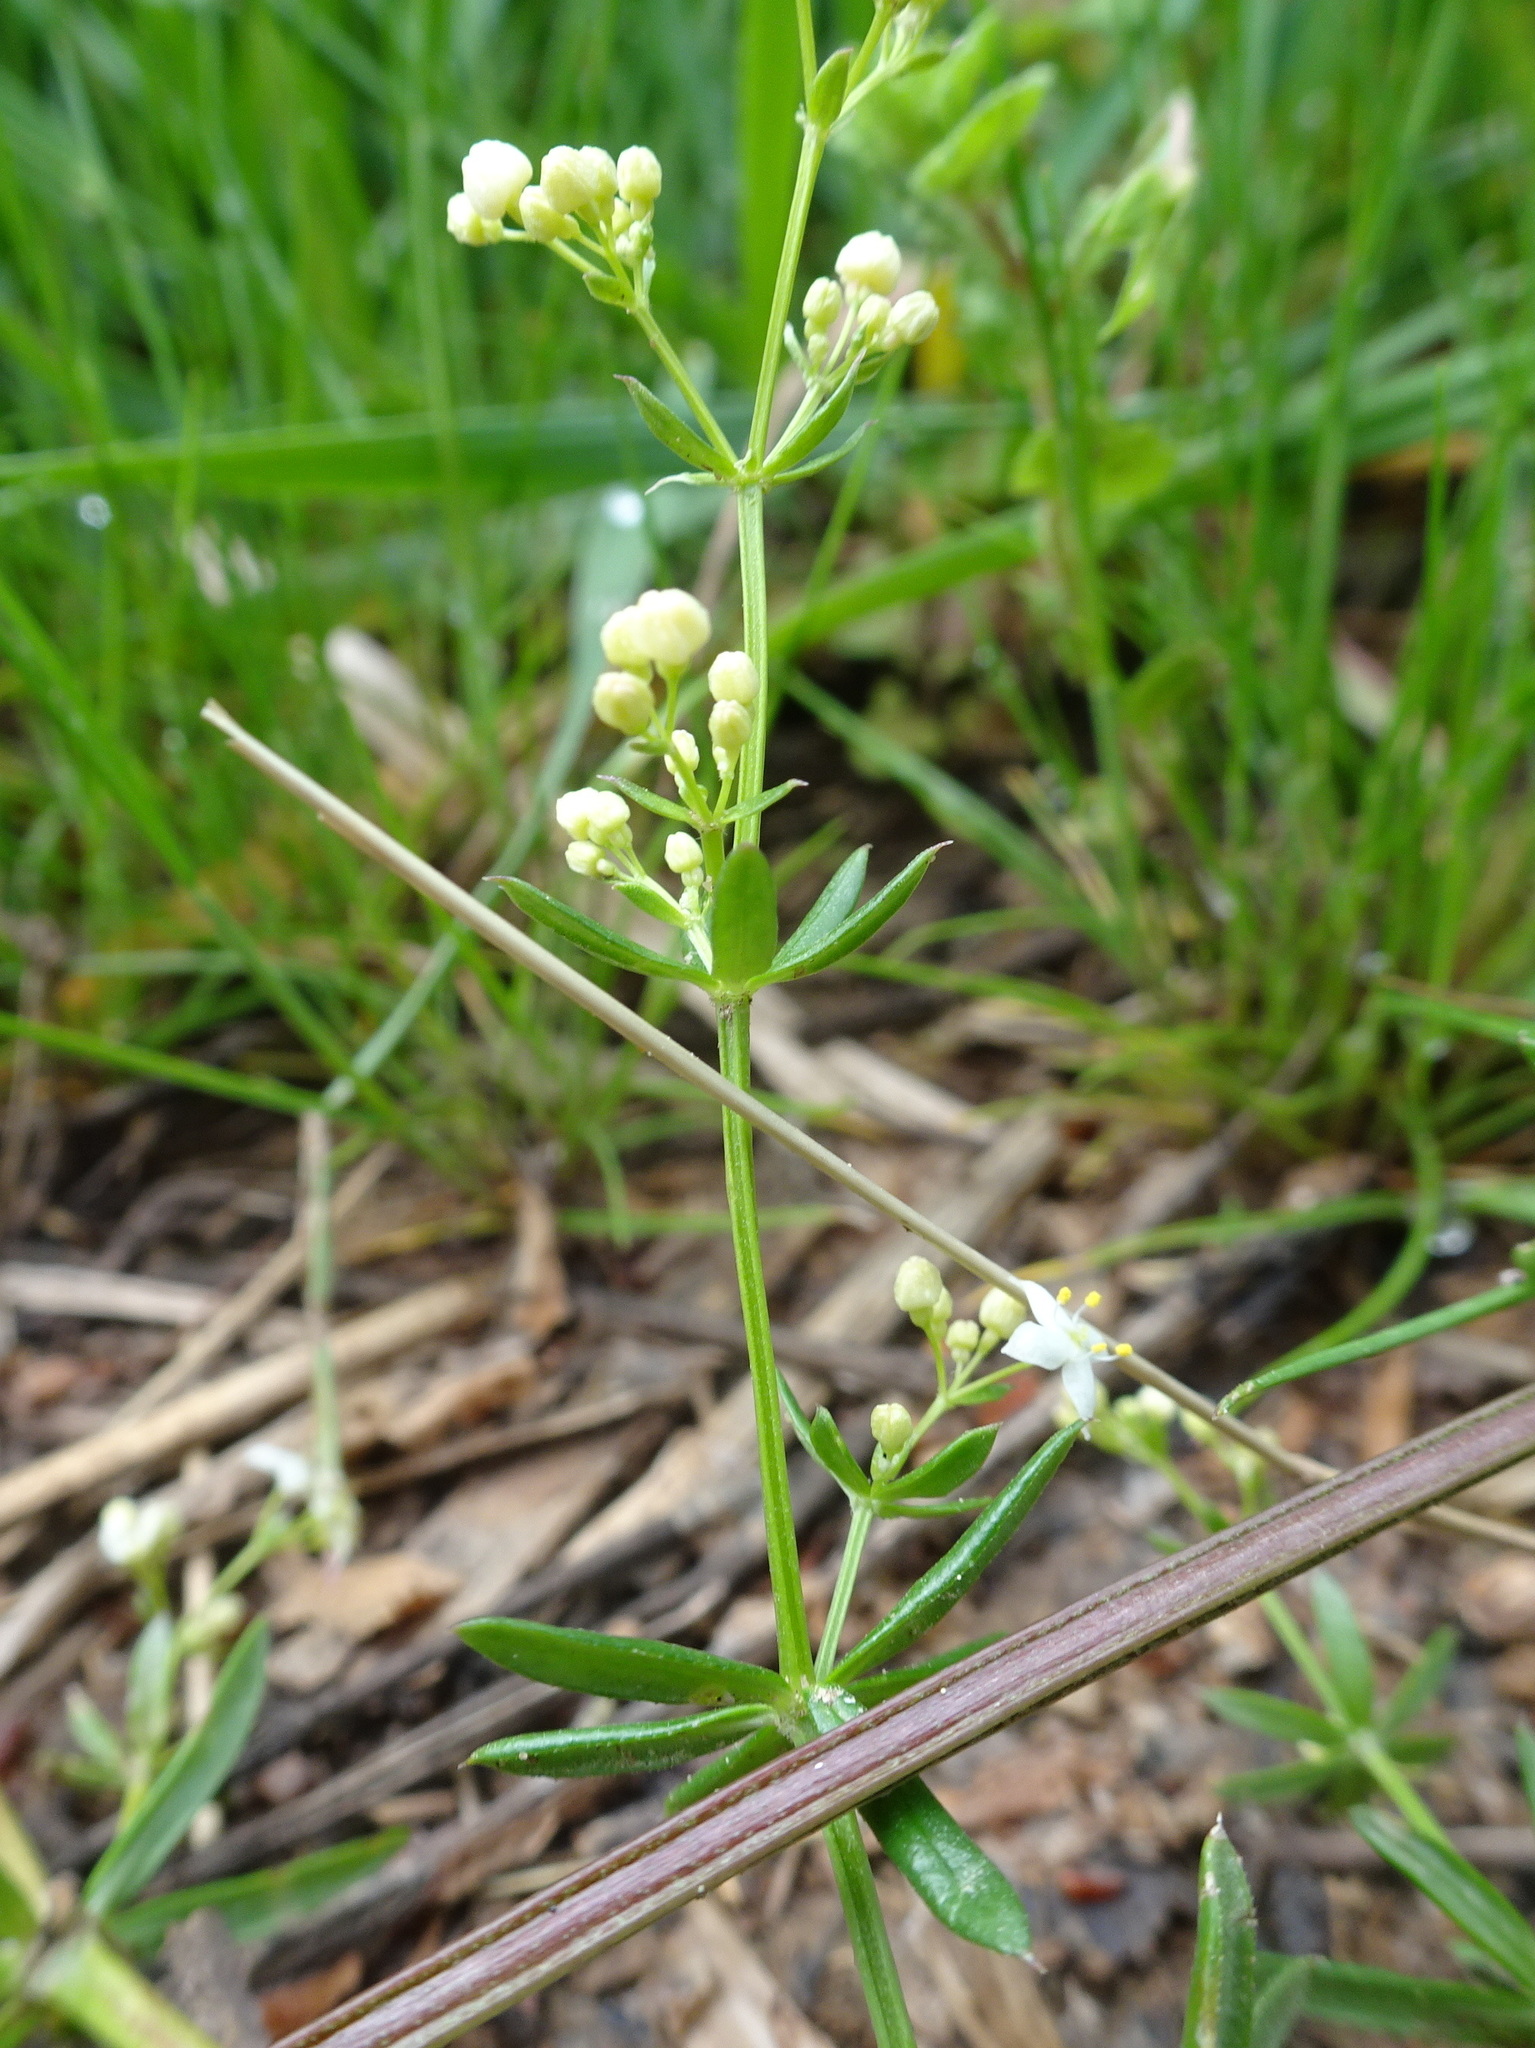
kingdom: Plantae
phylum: Tracheophyta
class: Magnoliopsida
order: Gentianales
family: Rubiaceae
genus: Galium
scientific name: Galium saxatile
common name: Heath bedstraw
